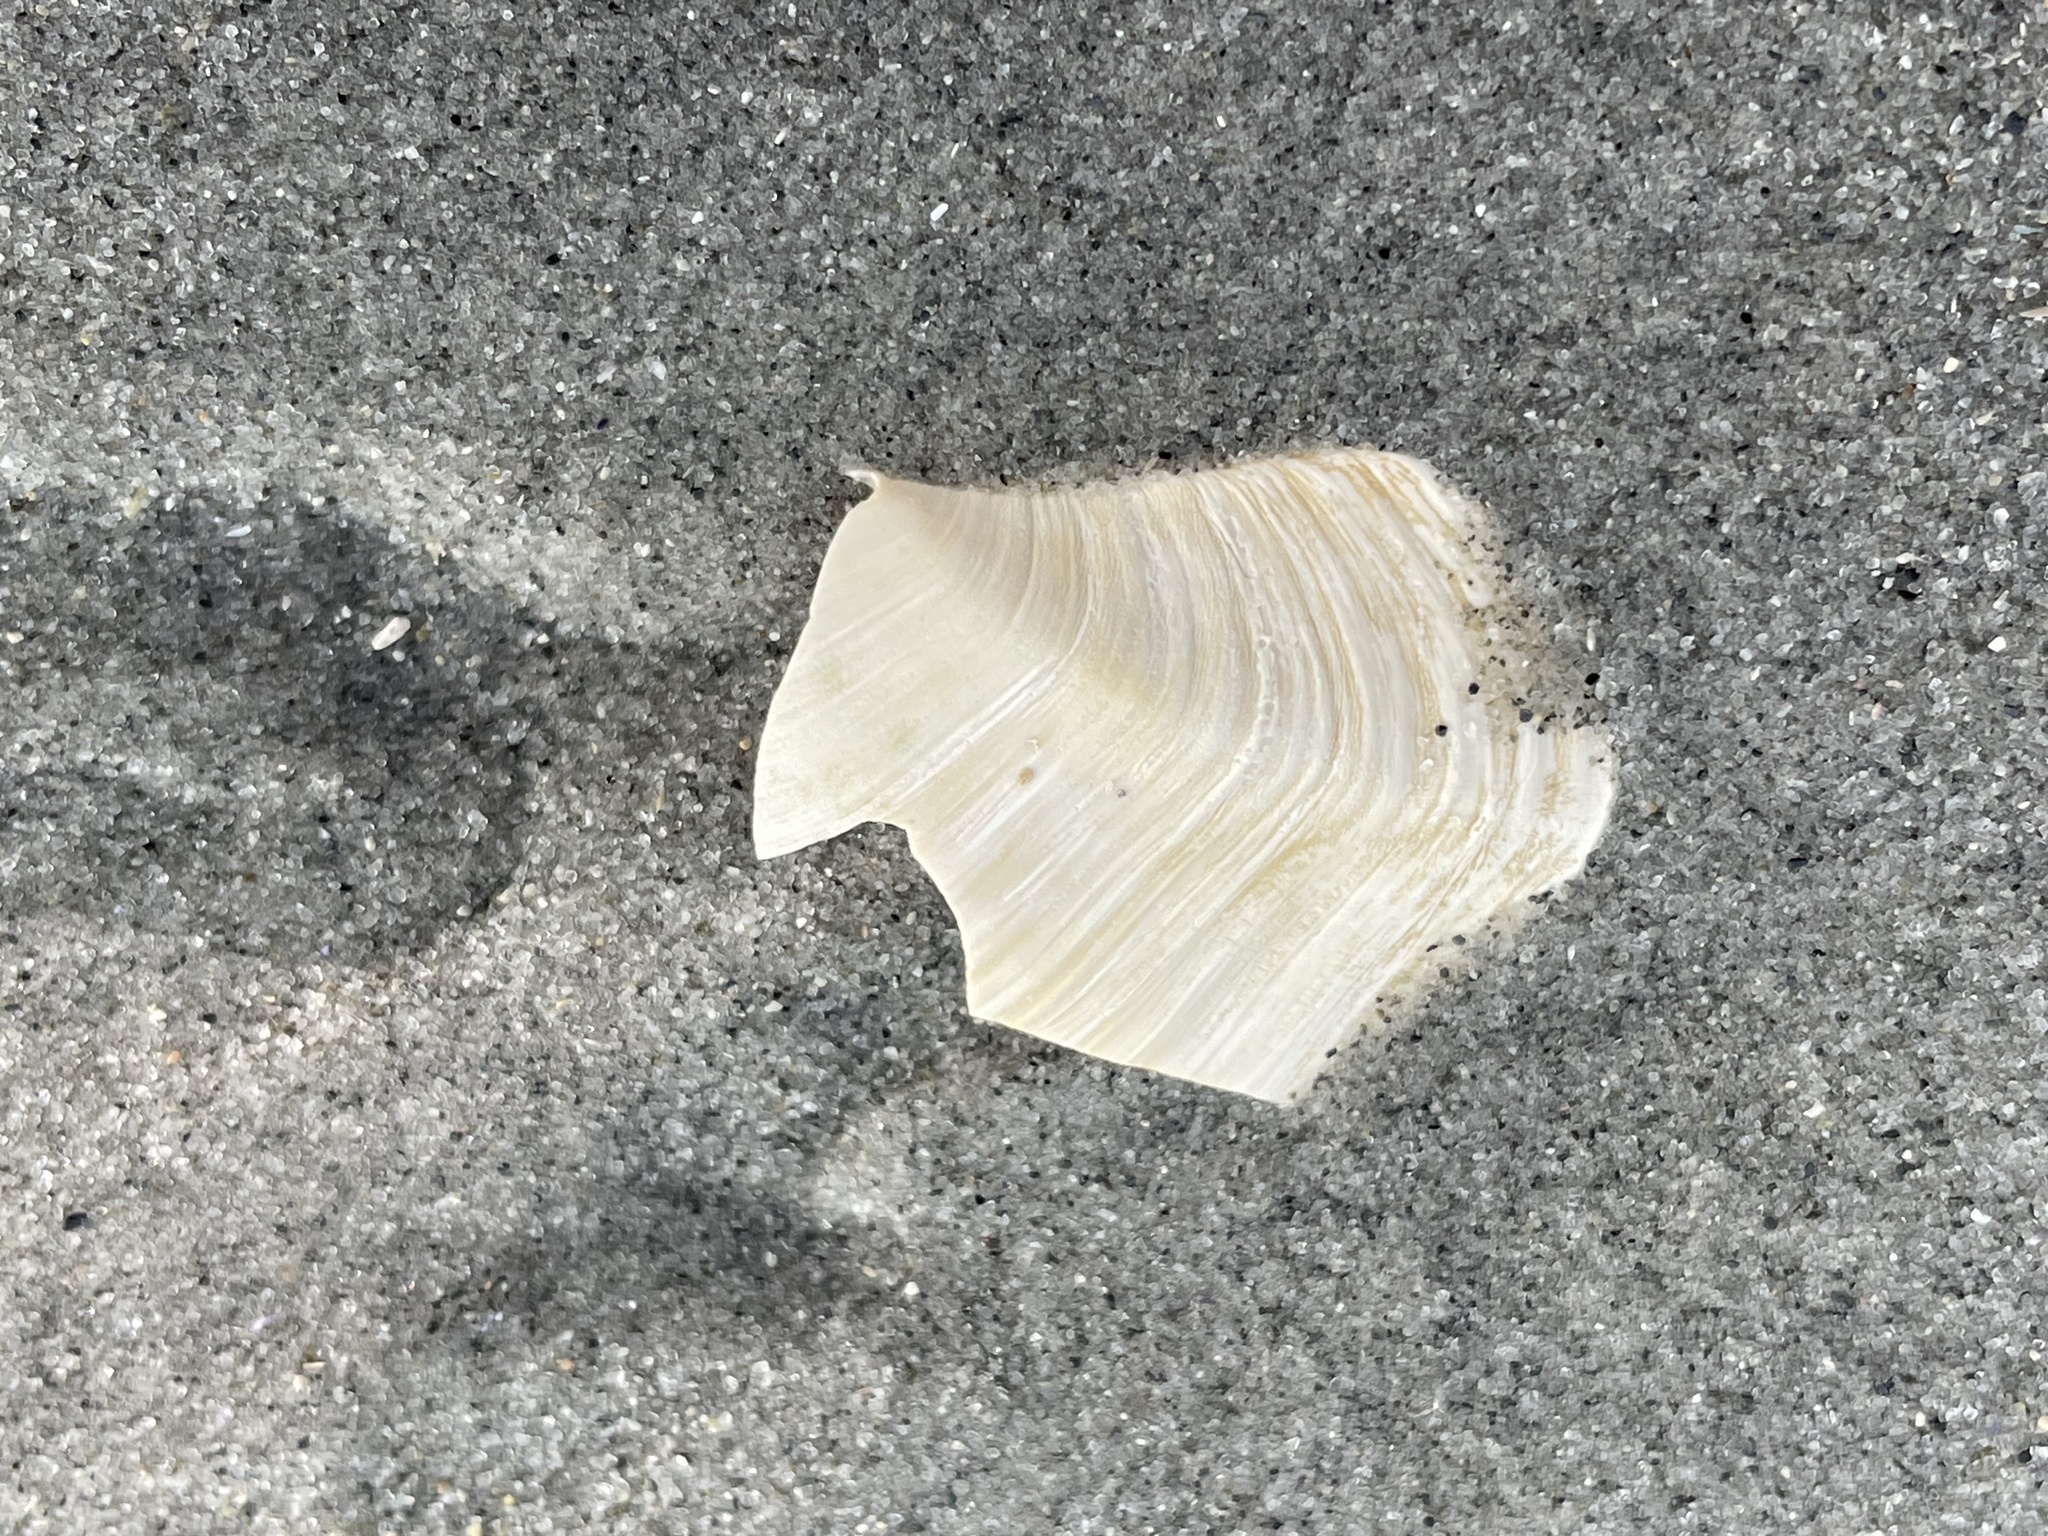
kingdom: Animalia
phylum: Mollusca
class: Bivalvia
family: Thraciidae
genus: Thracia
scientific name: Thracia conradi
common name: Conrad thracia
